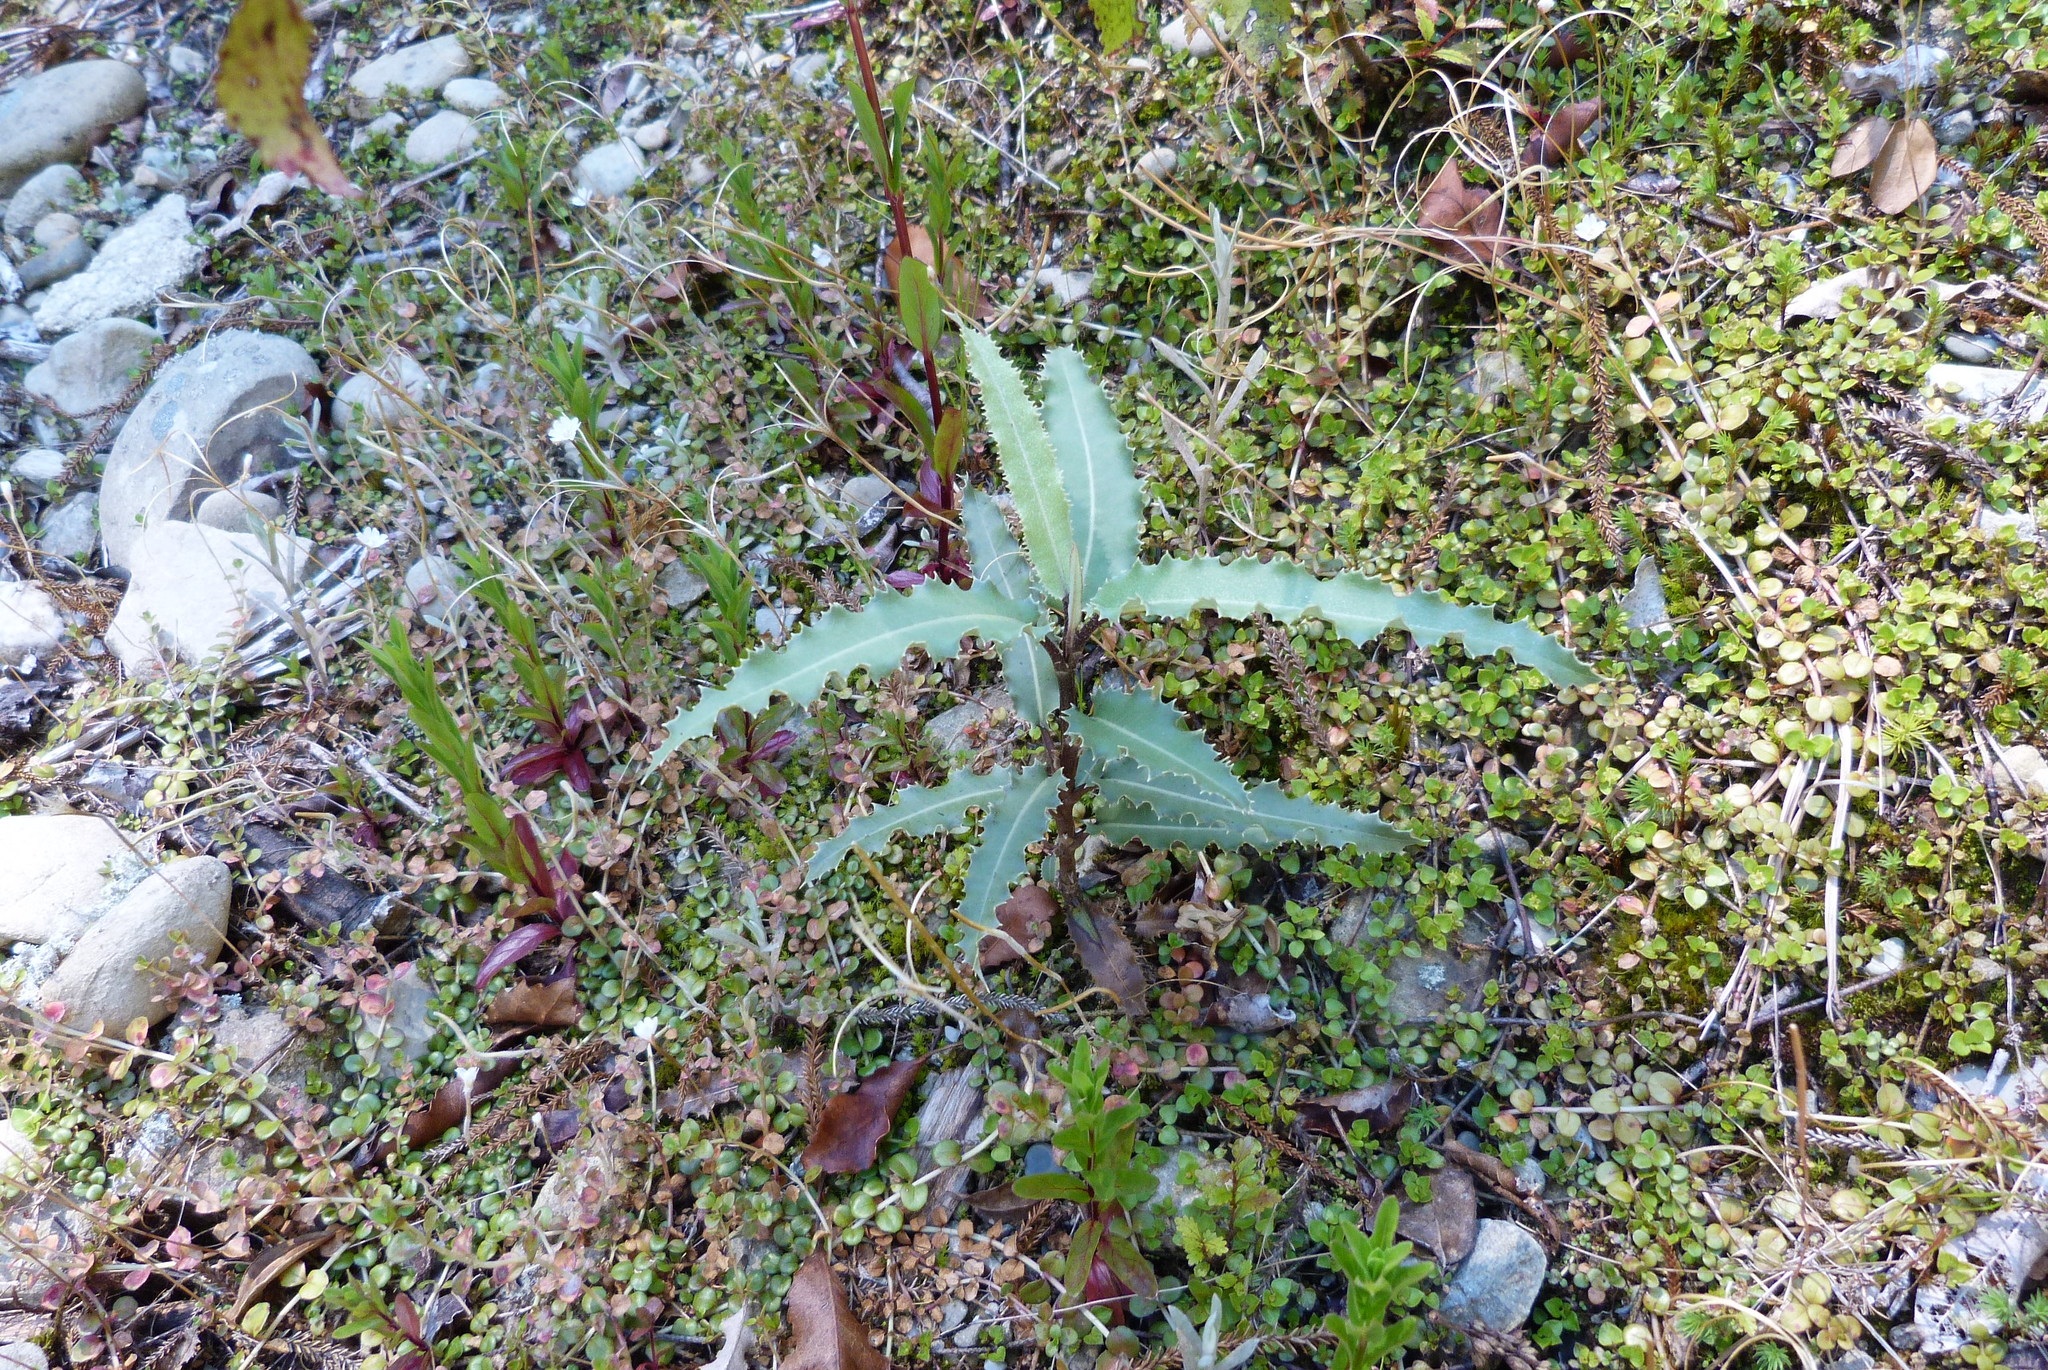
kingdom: Plantae
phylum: Tracheophyta
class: Magnoliopsida
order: Asterales
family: Asteraceae
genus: Olearia
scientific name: Olearia ilicifolia
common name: Maori-holly
